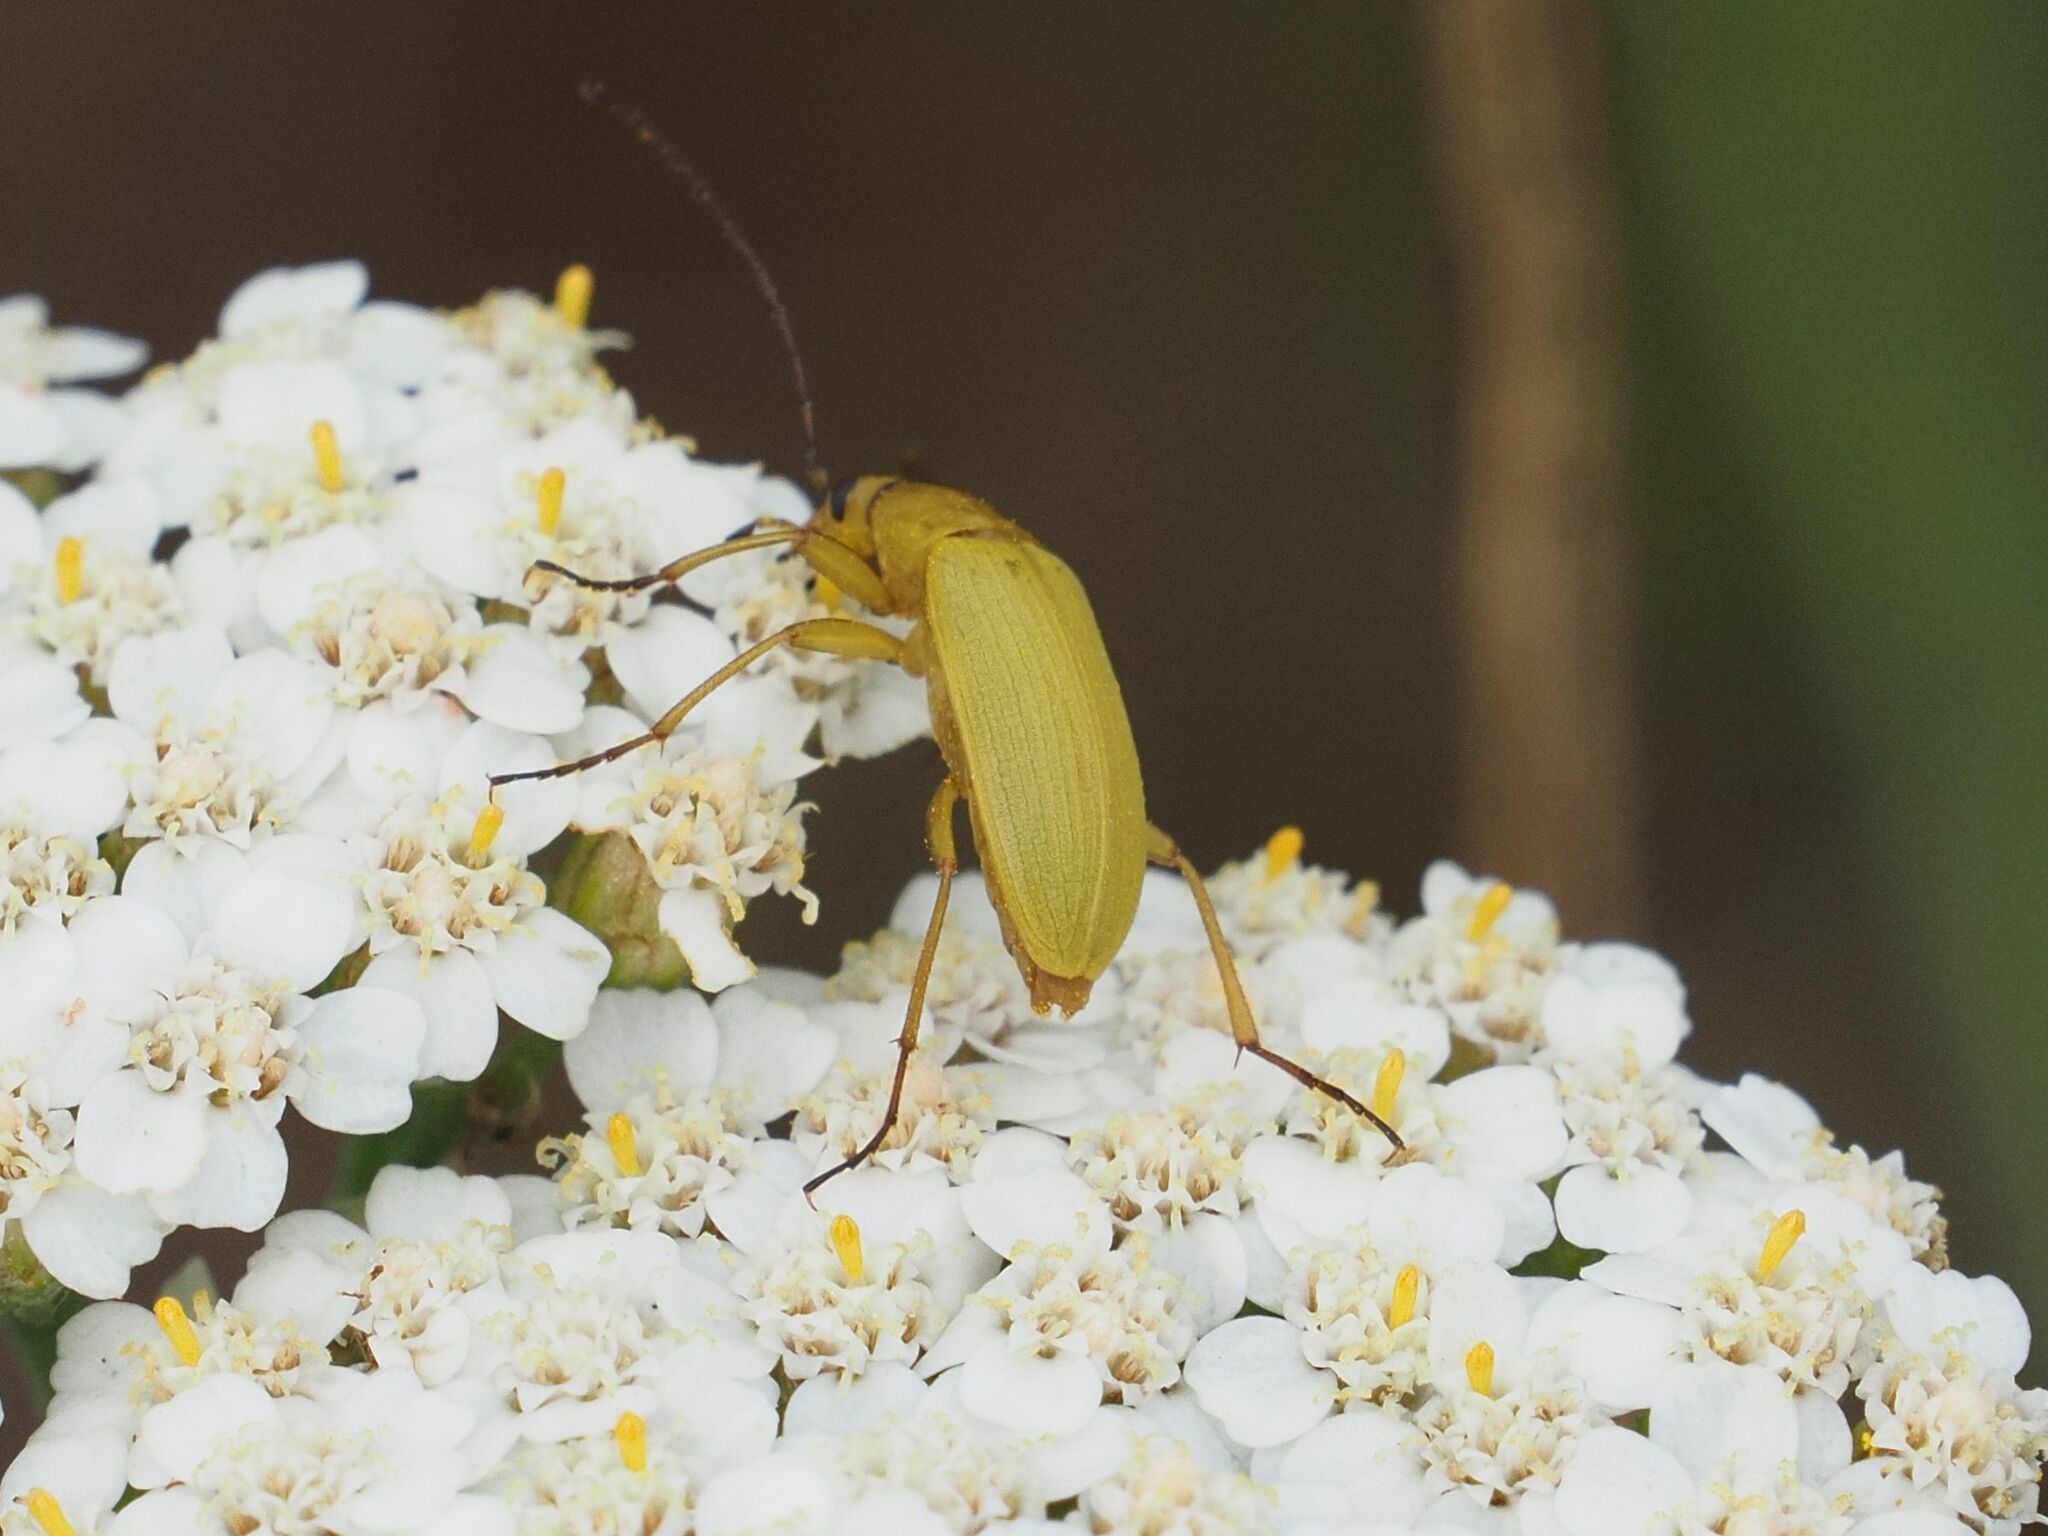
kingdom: Animalia
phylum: Arthropoda
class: Insecta
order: Coleoptera
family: Tenebrionidae
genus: Cteniopus
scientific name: Cteniopus sulphureus
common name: Sulphur beetle
